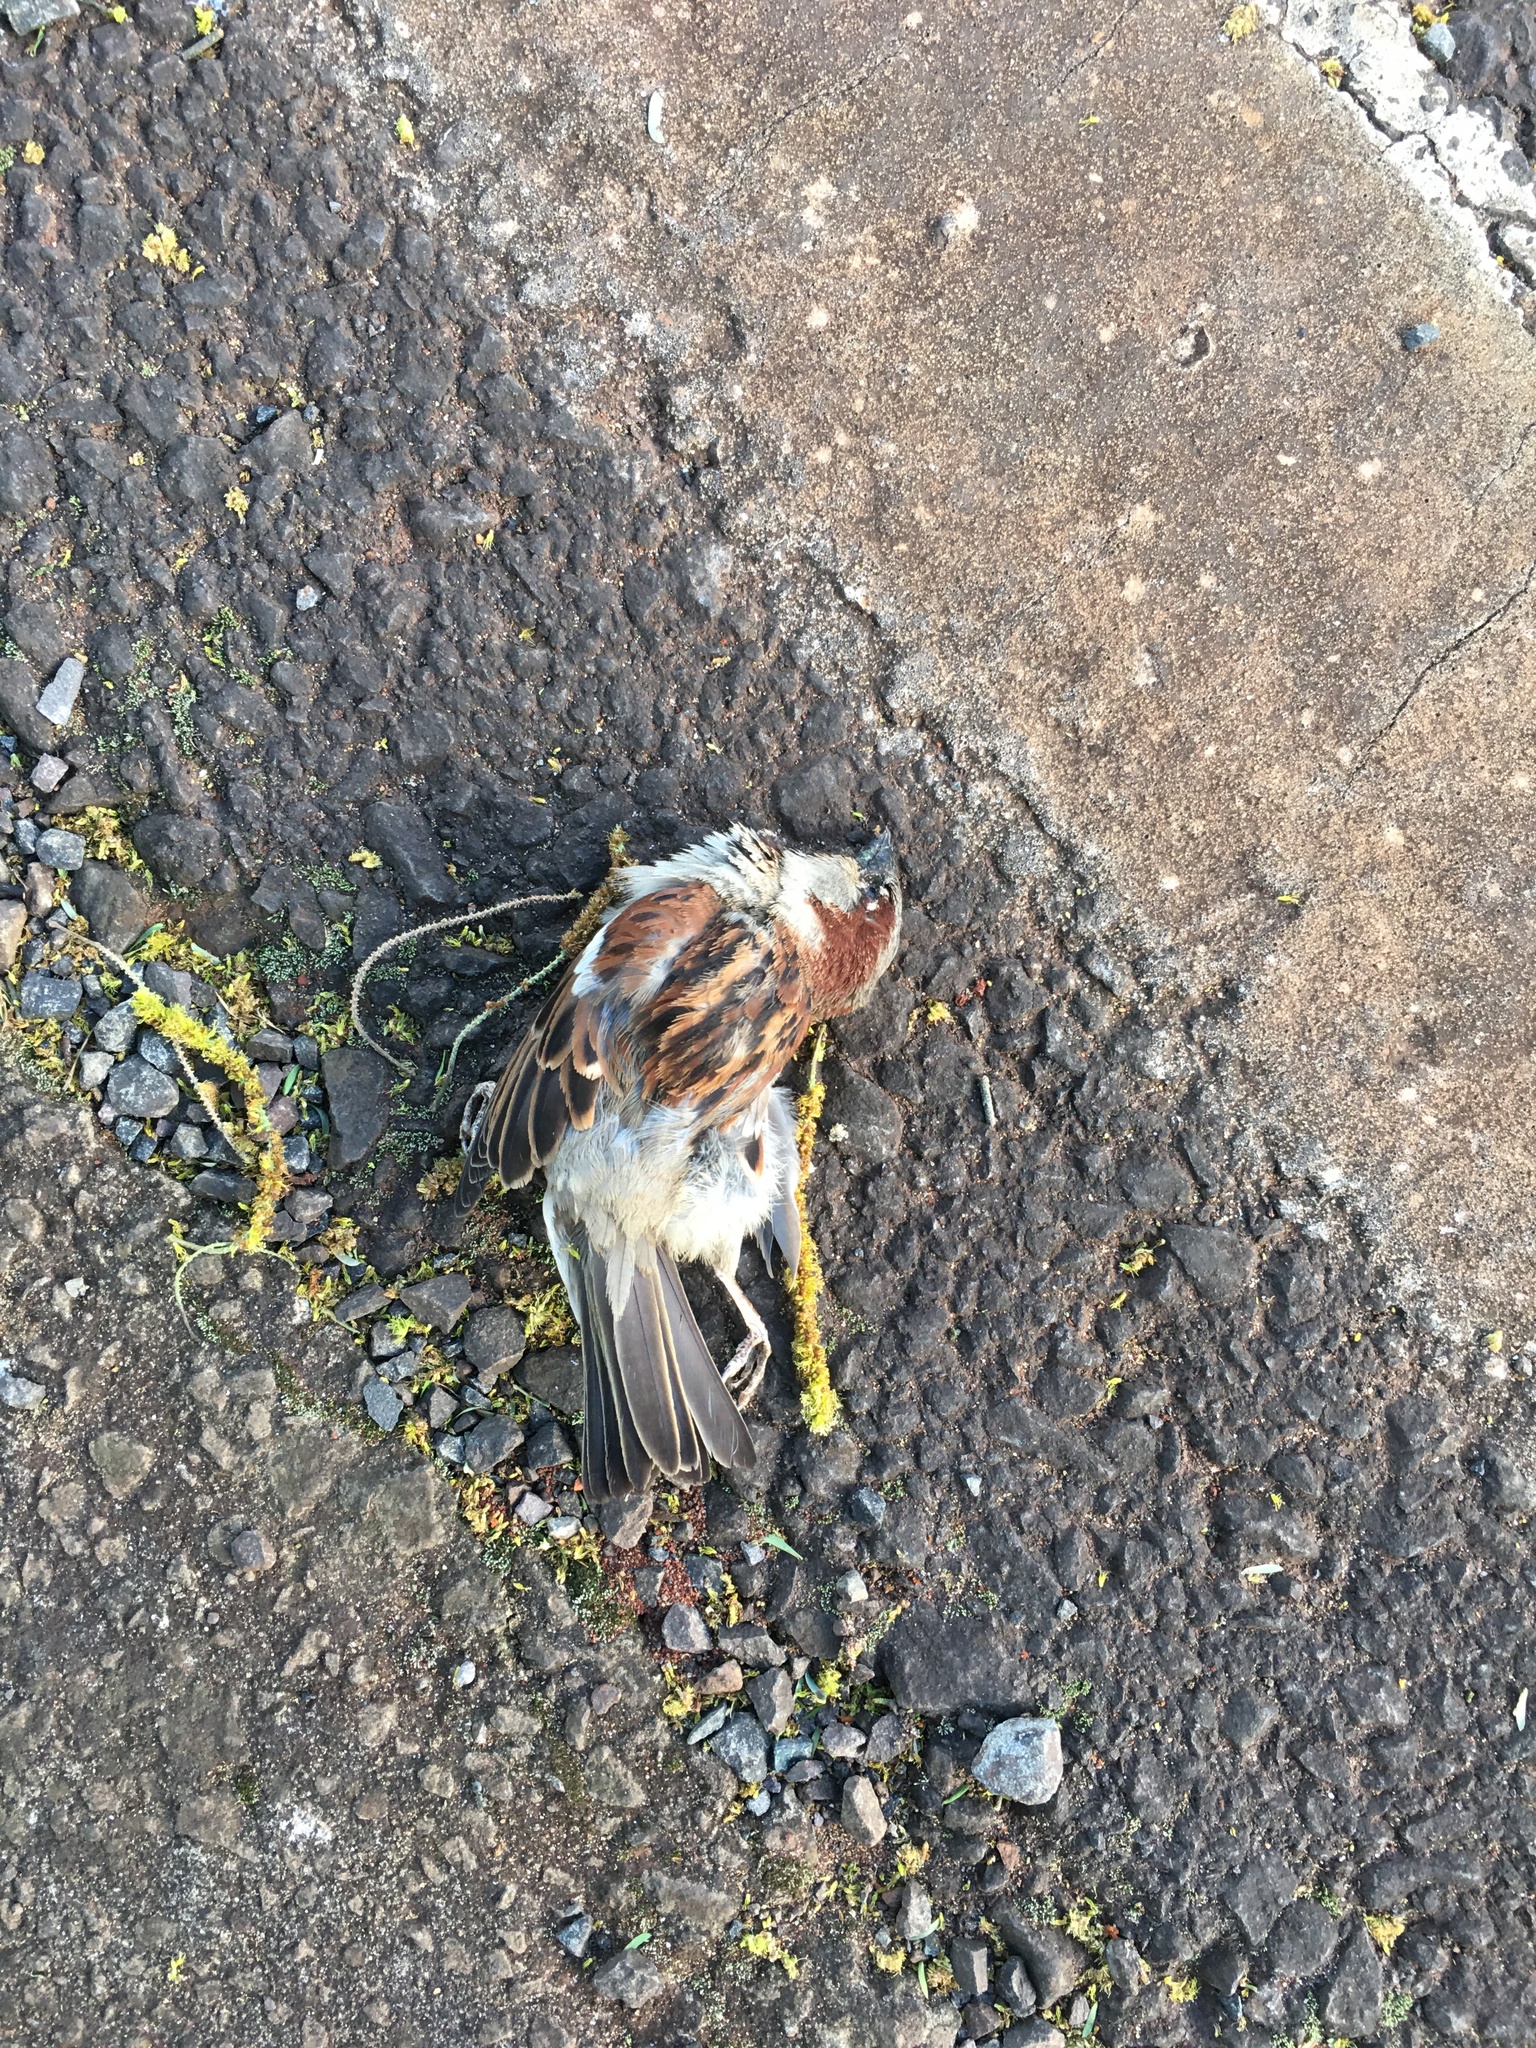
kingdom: Animalia
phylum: Chordata
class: Aves
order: Passeriformes
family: Passeridae
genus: Passer
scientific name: Passer domesticus
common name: House sparrow
